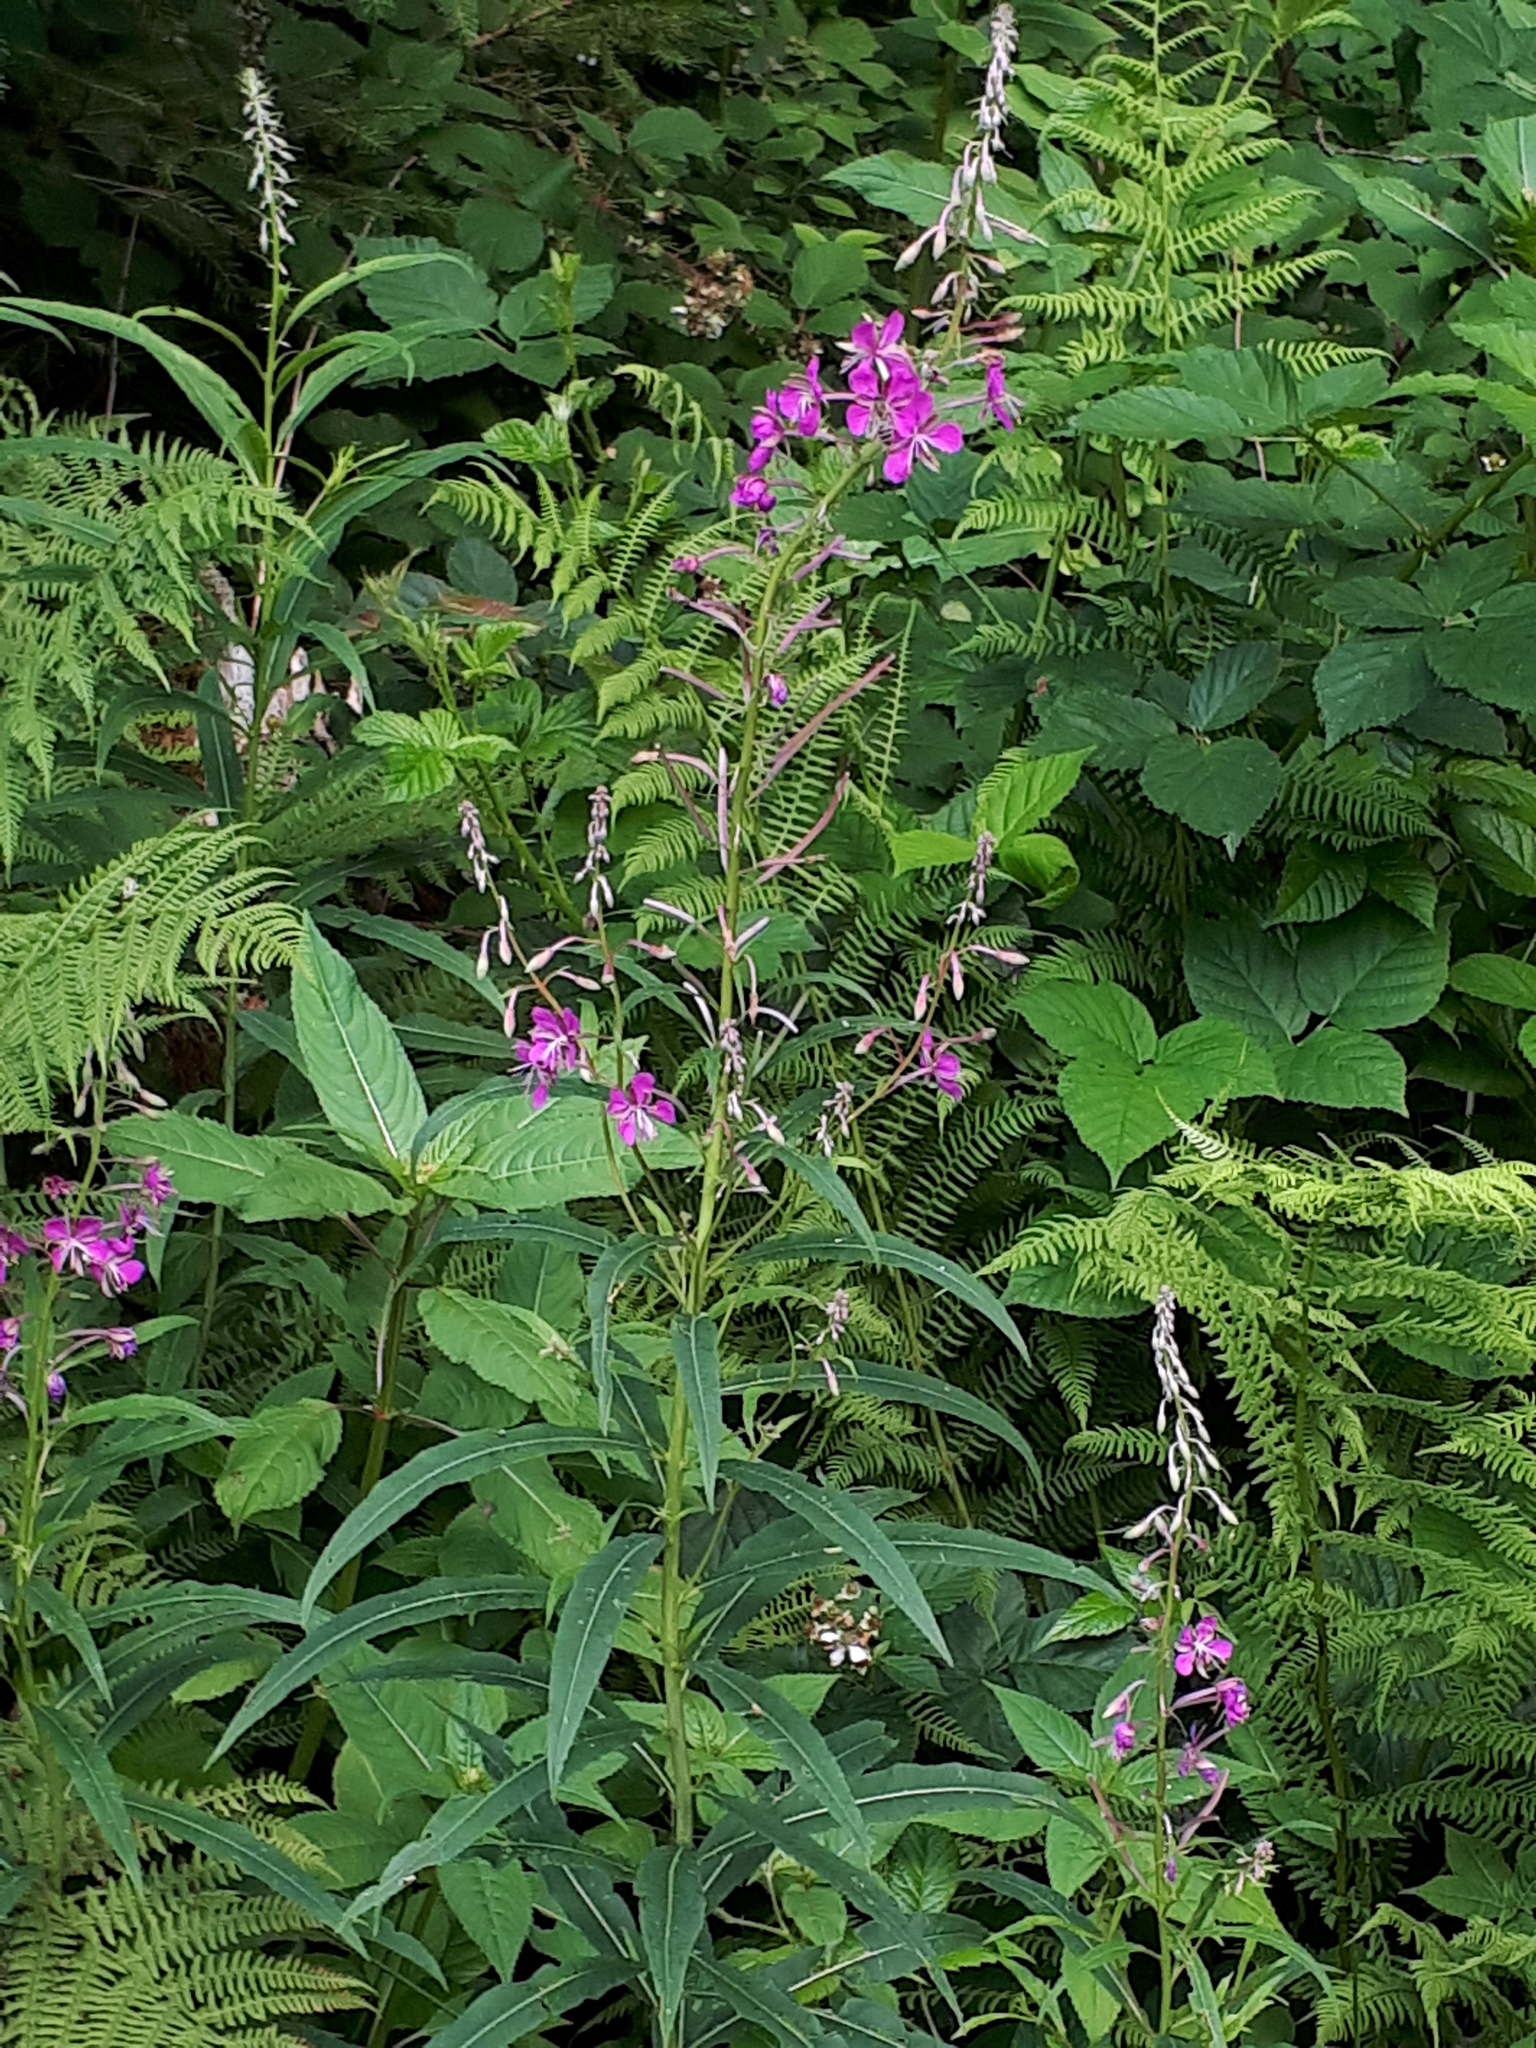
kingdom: Plantae
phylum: Tracheophyta
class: Magnoliopsida
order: Myrtales
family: Onagraceae
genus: Chamaenerion
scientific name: Chamaenerion angustifolium
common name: Fireweed
